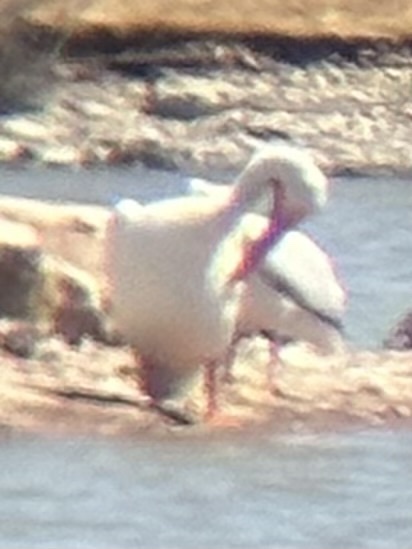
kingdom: Animalia
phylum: Chordata
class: Aves
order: Pelecaniformes
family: Pelecanidae
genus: Pelecanus
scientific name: Pelecanus erythrorhynchos
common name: American white pelican
